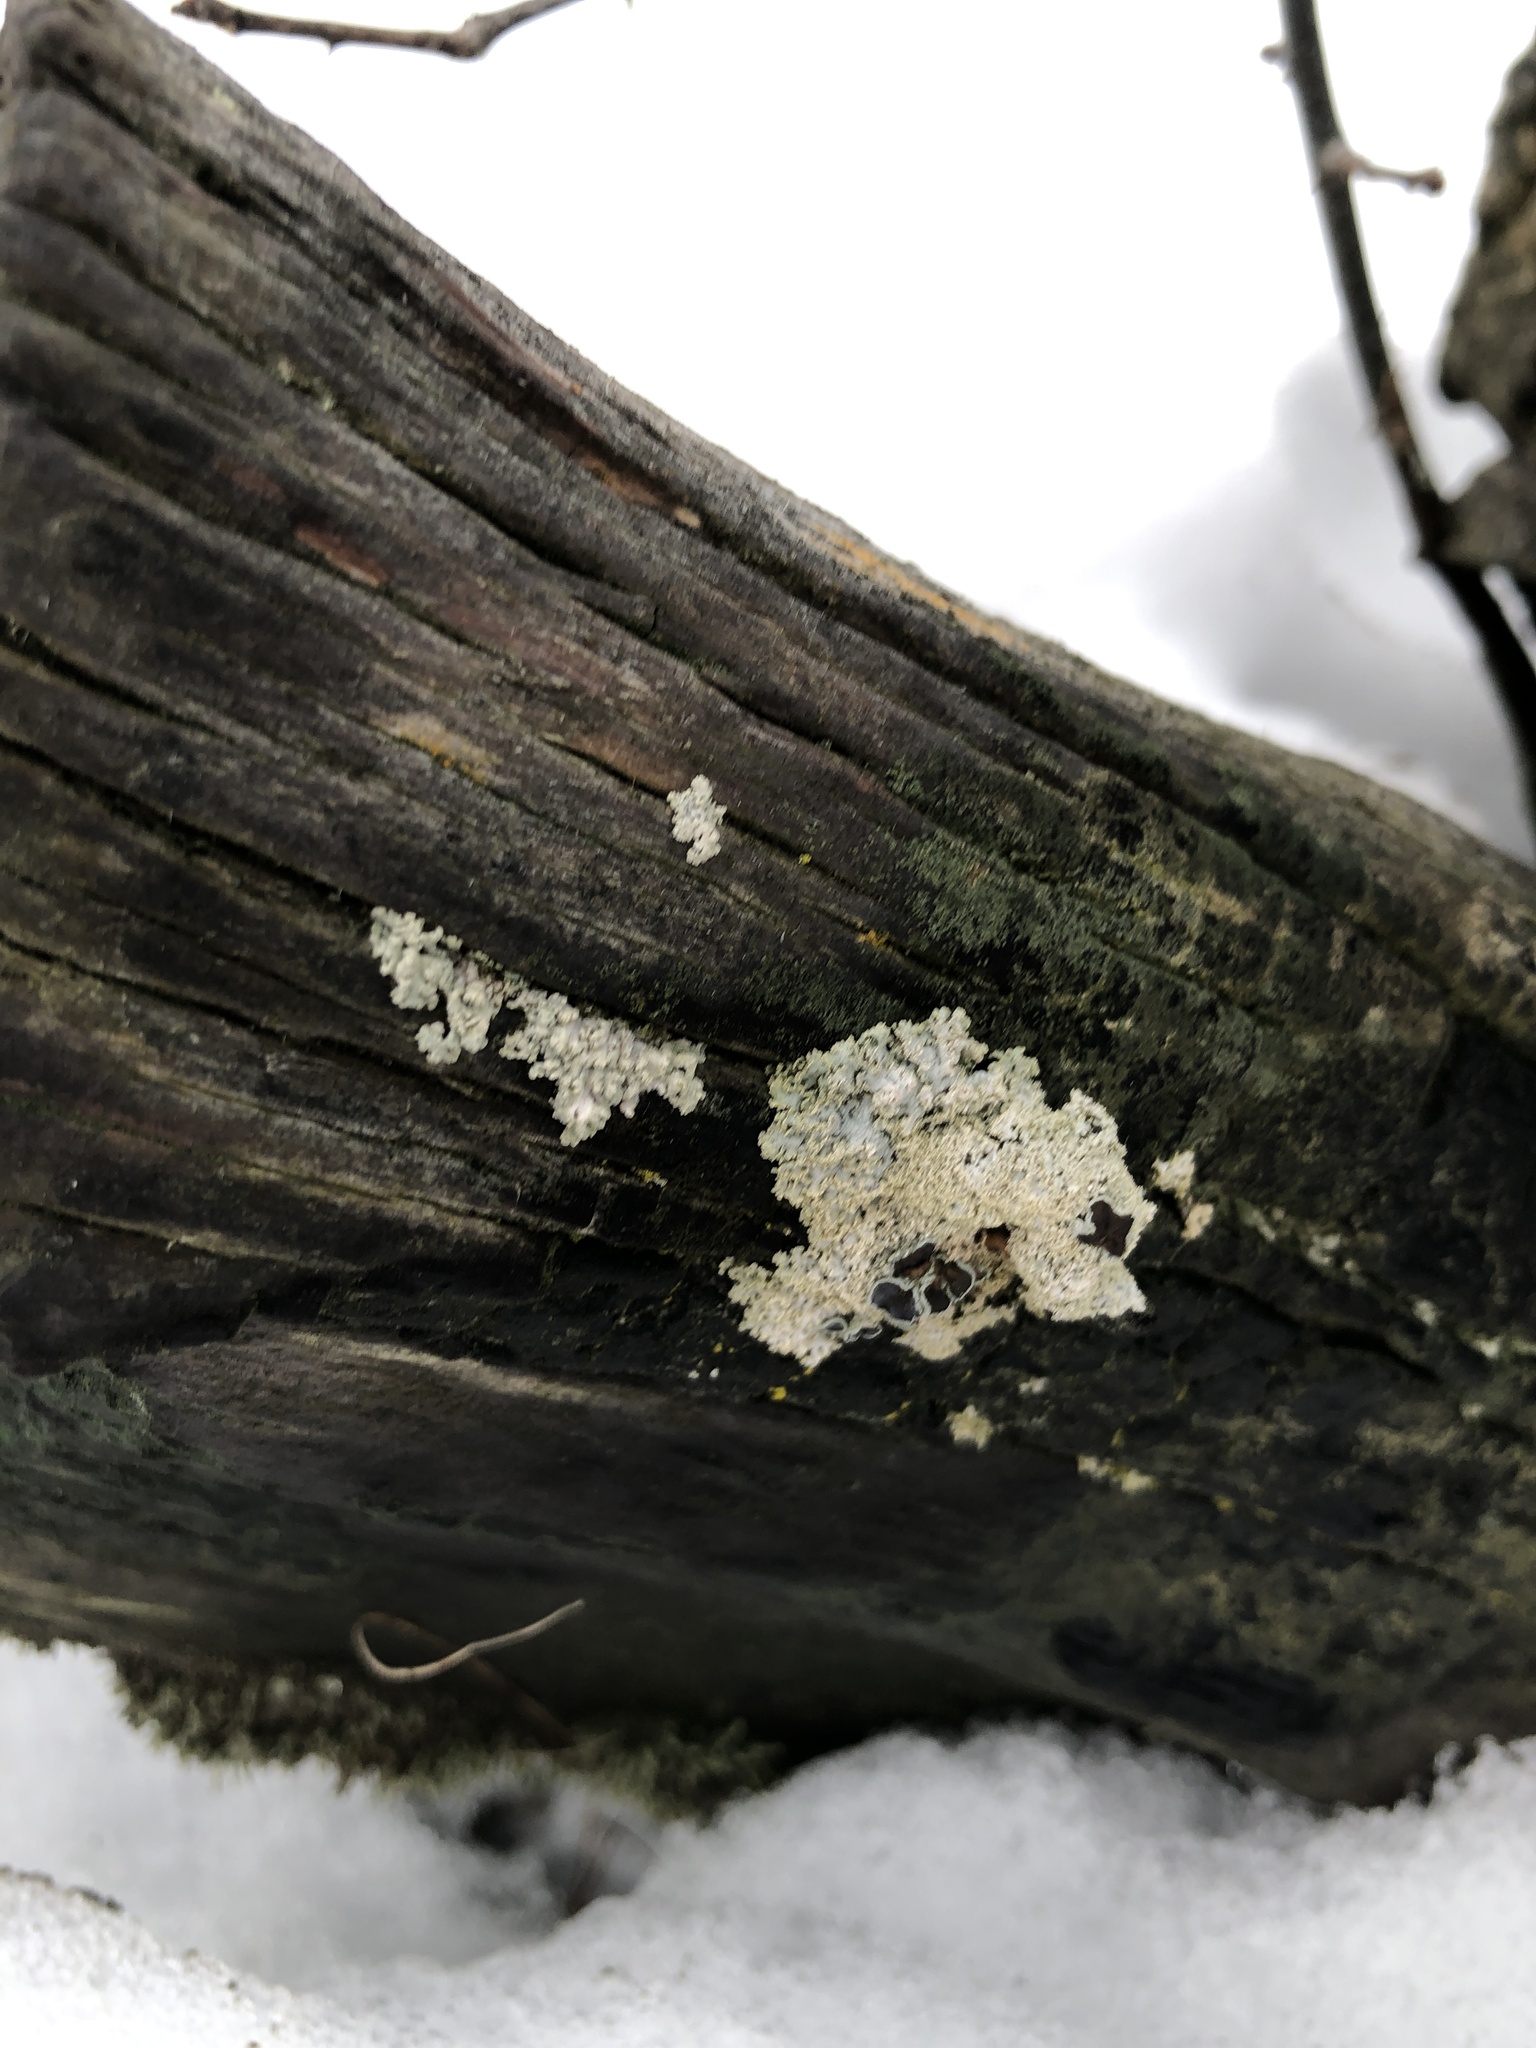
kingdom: Fungi
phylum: Ascomycota
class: Lecanoromycetes
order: Caliciales
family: Physciaceae
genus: Physcia
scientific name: Physcia millegrana
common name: Rosette lichen
